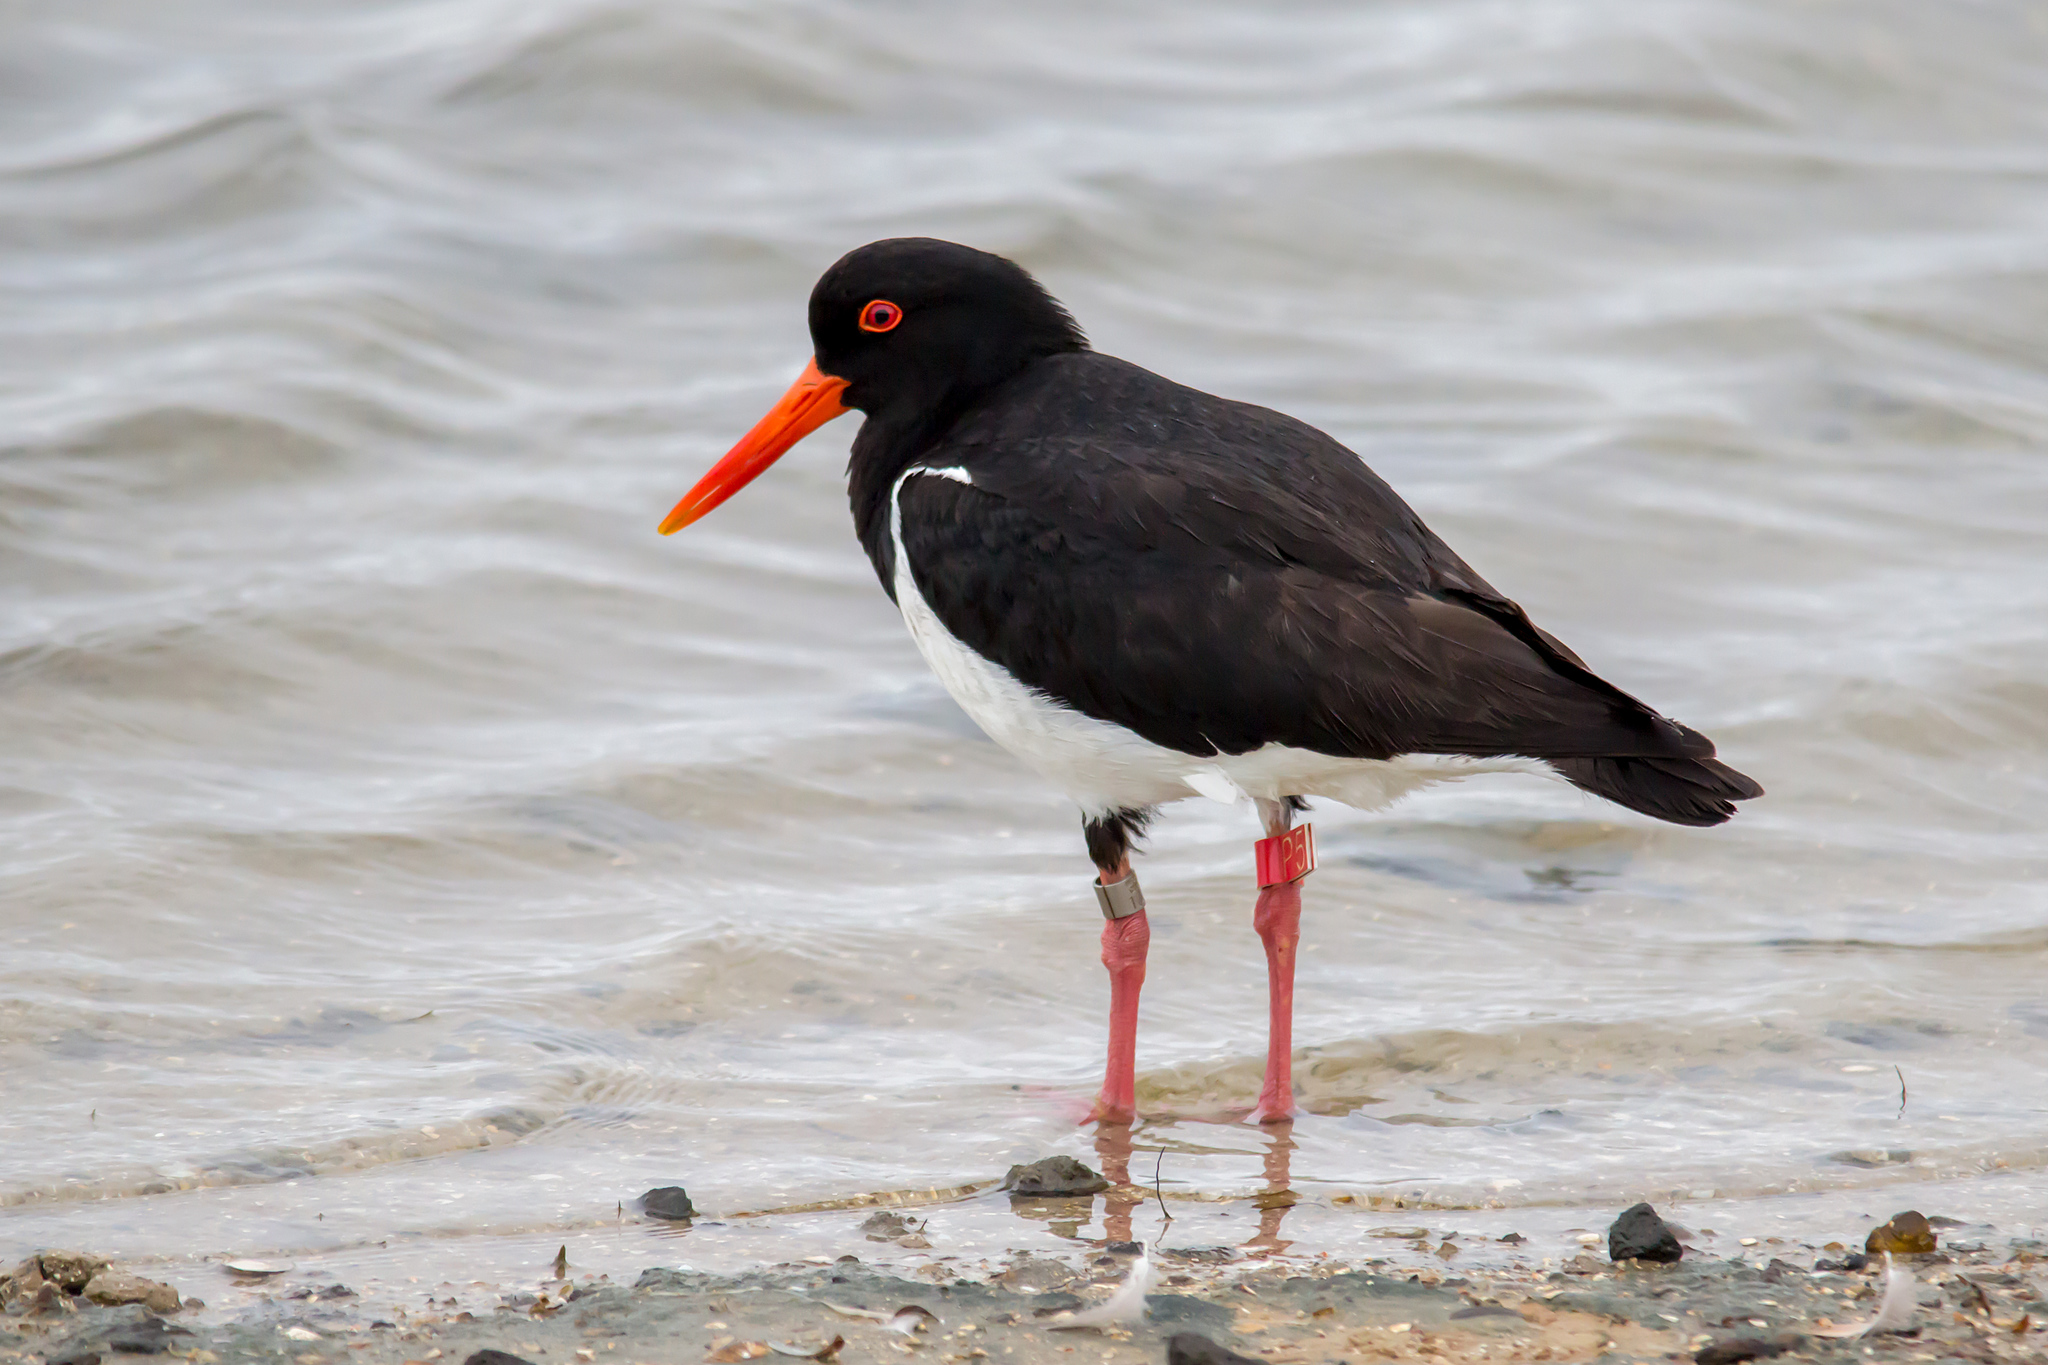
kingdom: Animalia
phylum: Chordata
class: Aves
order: Charadriiformes
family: Haematopodidae
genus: Haematopus
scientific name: Haematopus longirostris
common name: Pied oystercatcher
